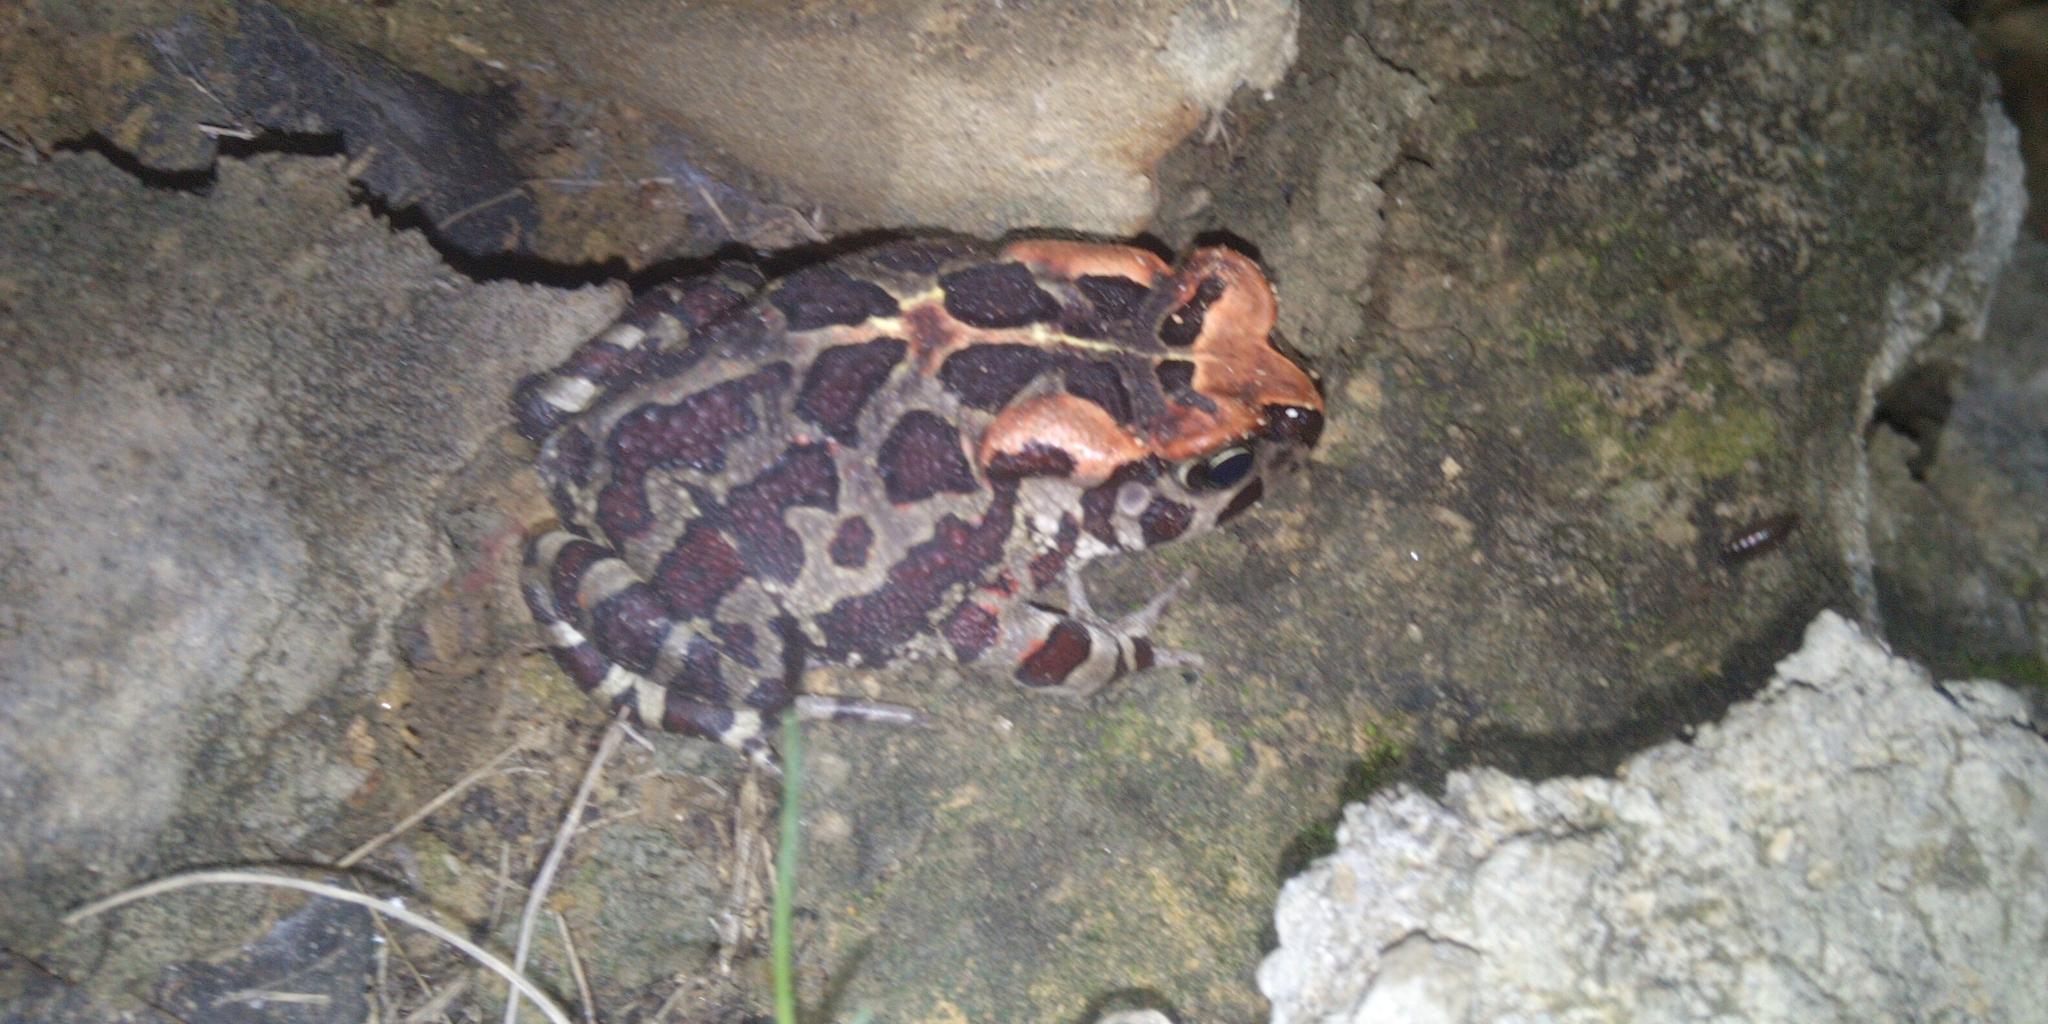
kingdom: Animalia
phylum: Chordata
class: Amphibia
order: Anura
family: Bufonidae
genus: Sclerophrys
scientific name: Sclerophrys pantherina
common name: Panther toad
